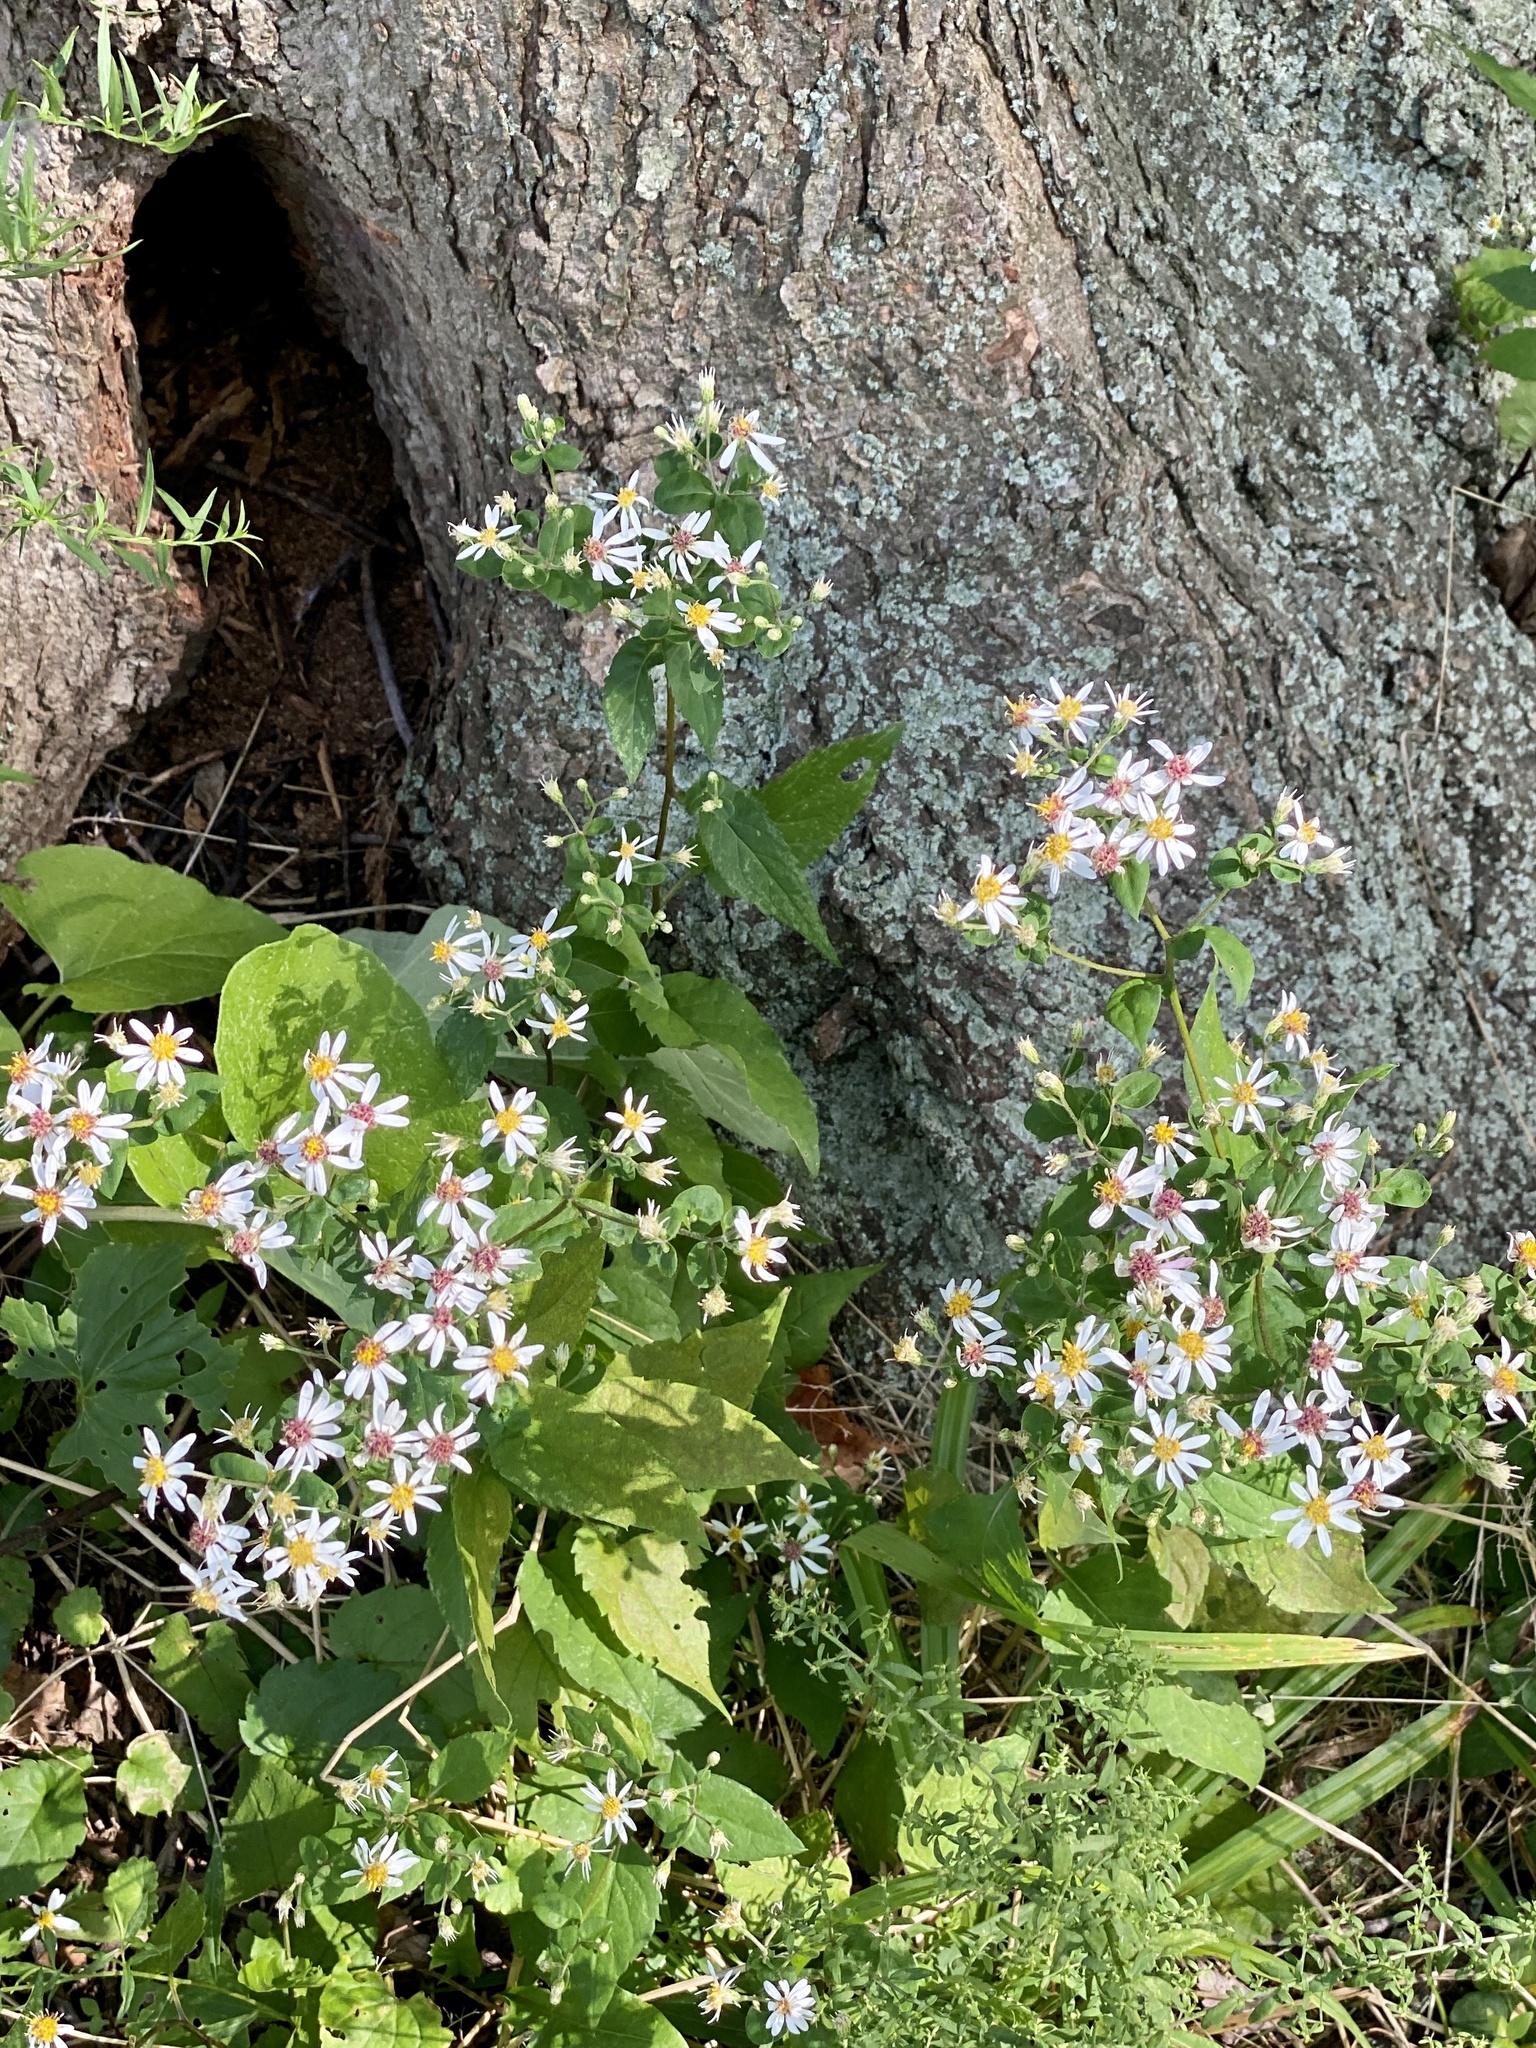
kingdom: Plantae
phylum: Tracheophyta
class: Magnoliopsida
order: Asterales
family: Asteraceae
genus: Eurybia
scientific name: Eurybia divaricata
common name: White wood aster
